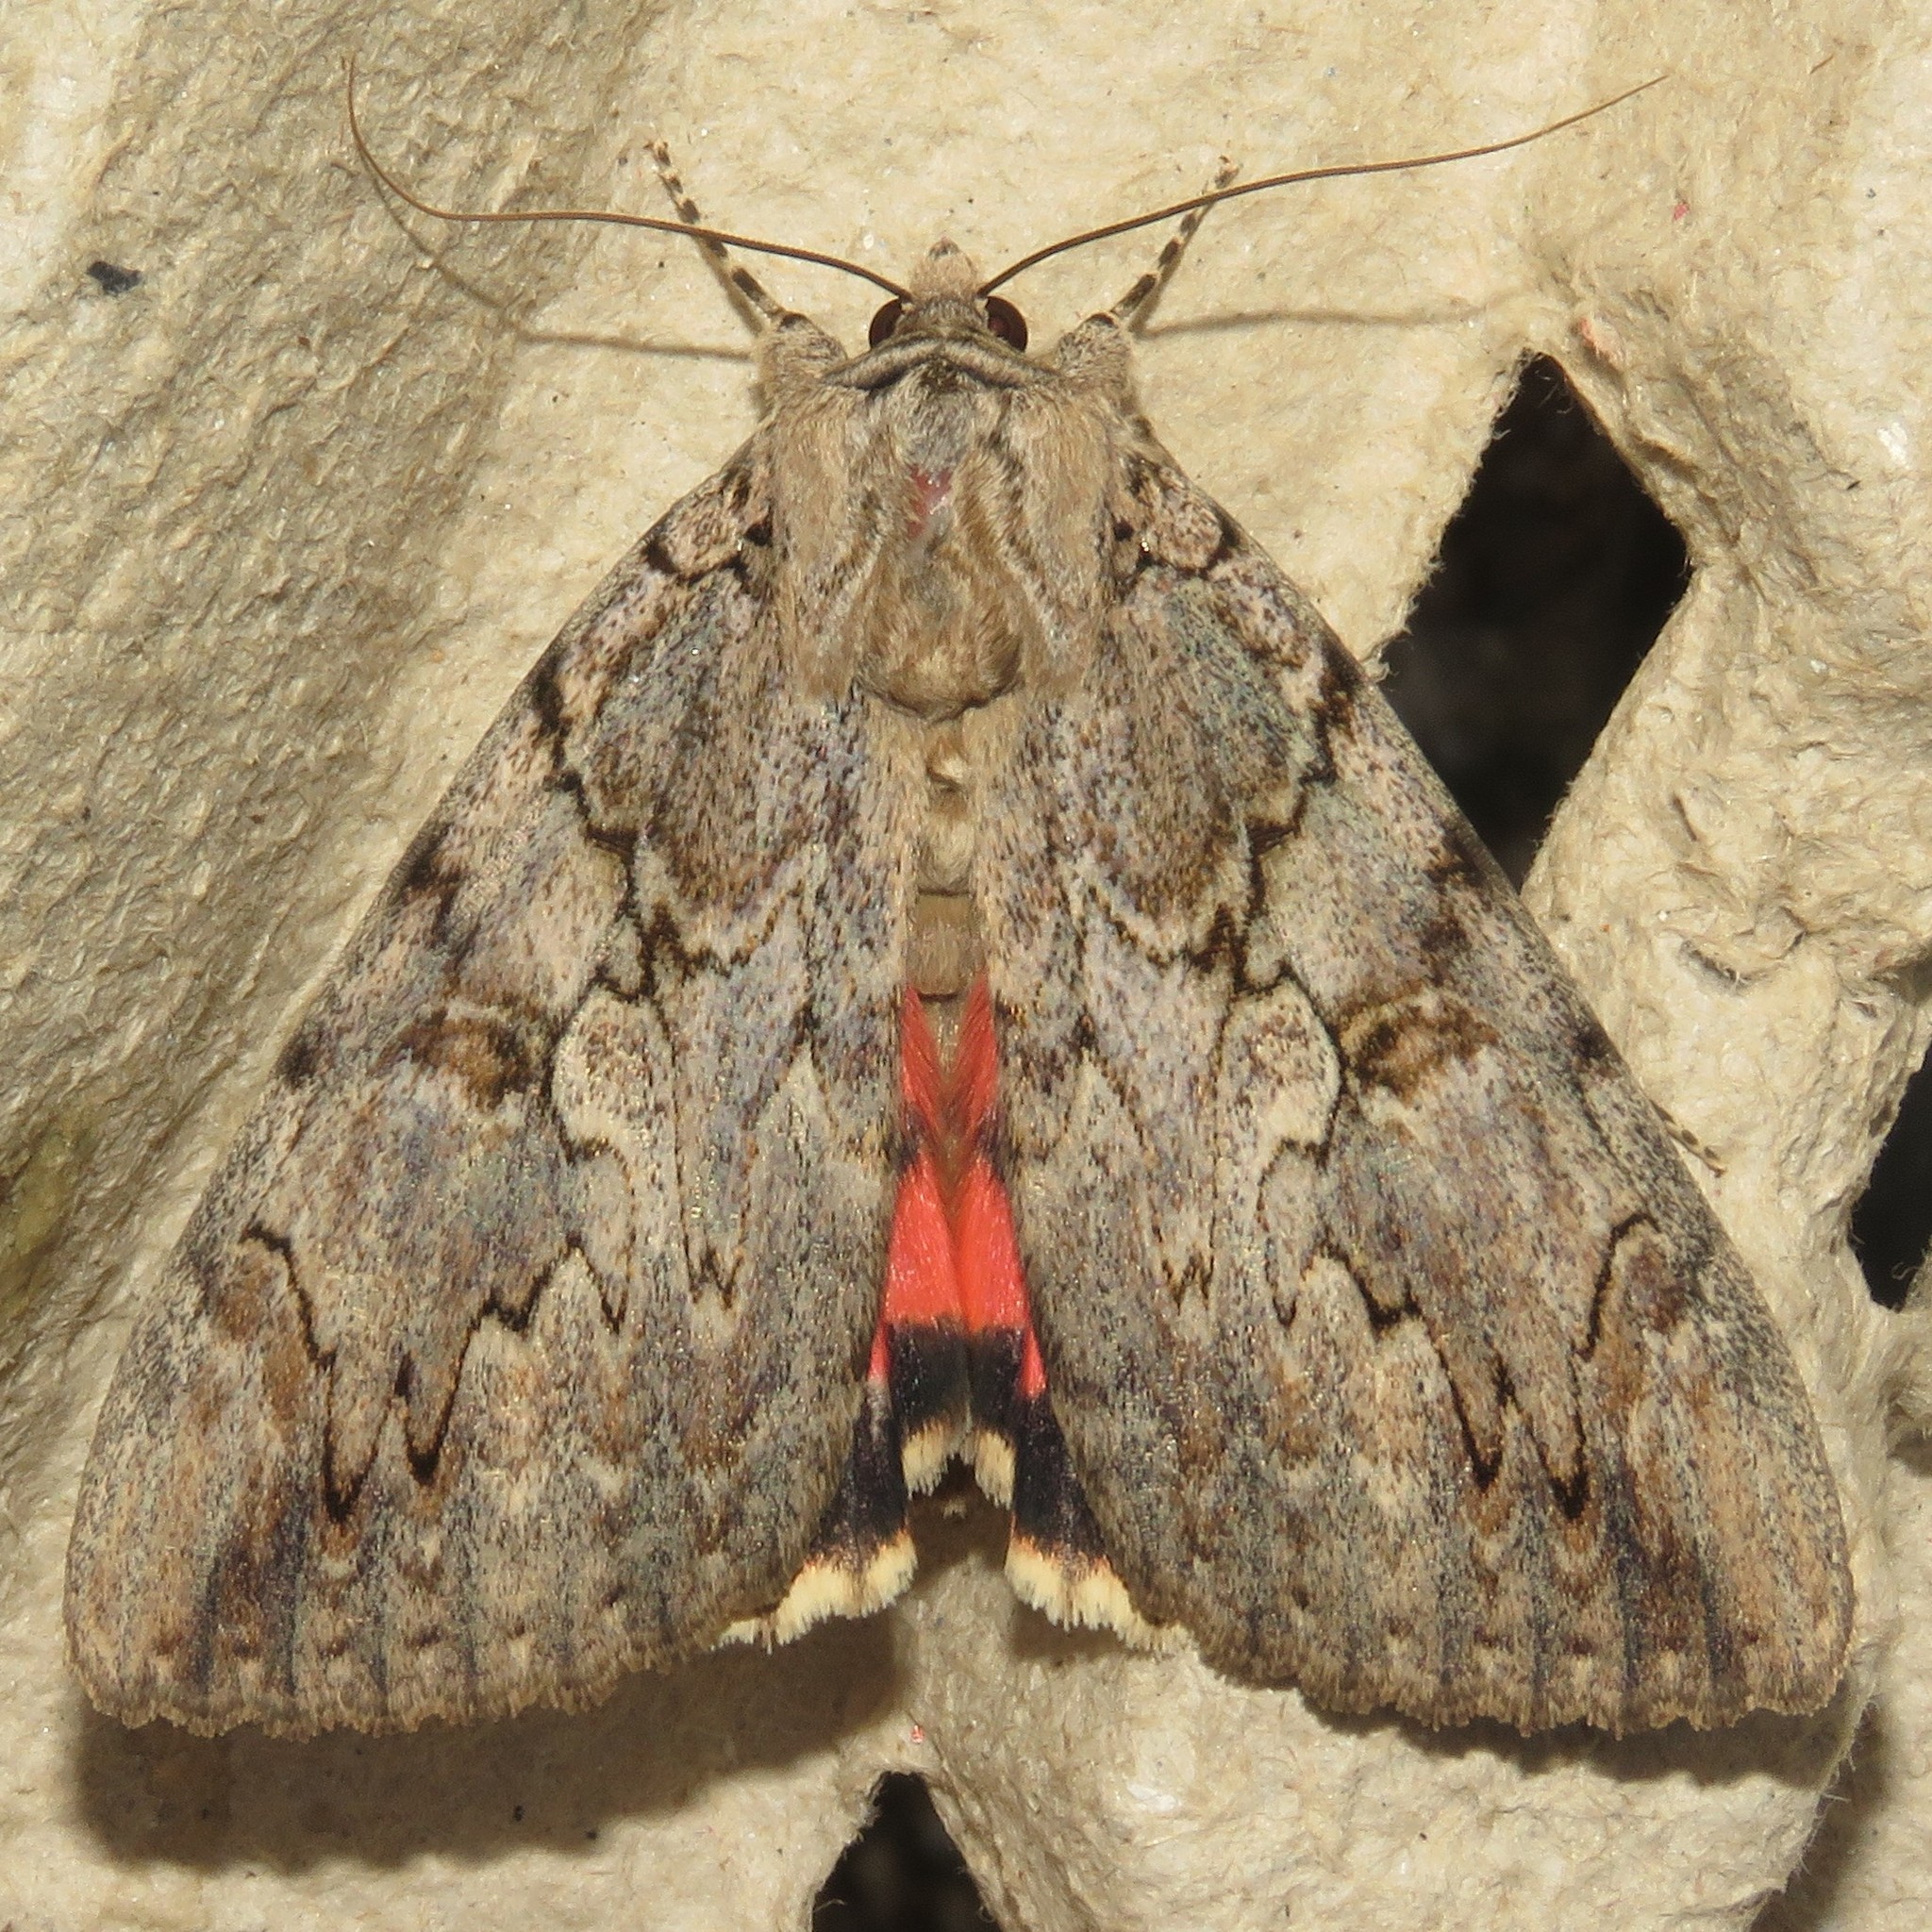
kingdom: Animalia
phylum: Arthropoda
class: Insecta
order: Lepidoptera
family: Erebidae
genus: Catocala
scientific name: Catocala amatrix
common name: Sweetheart underwing
